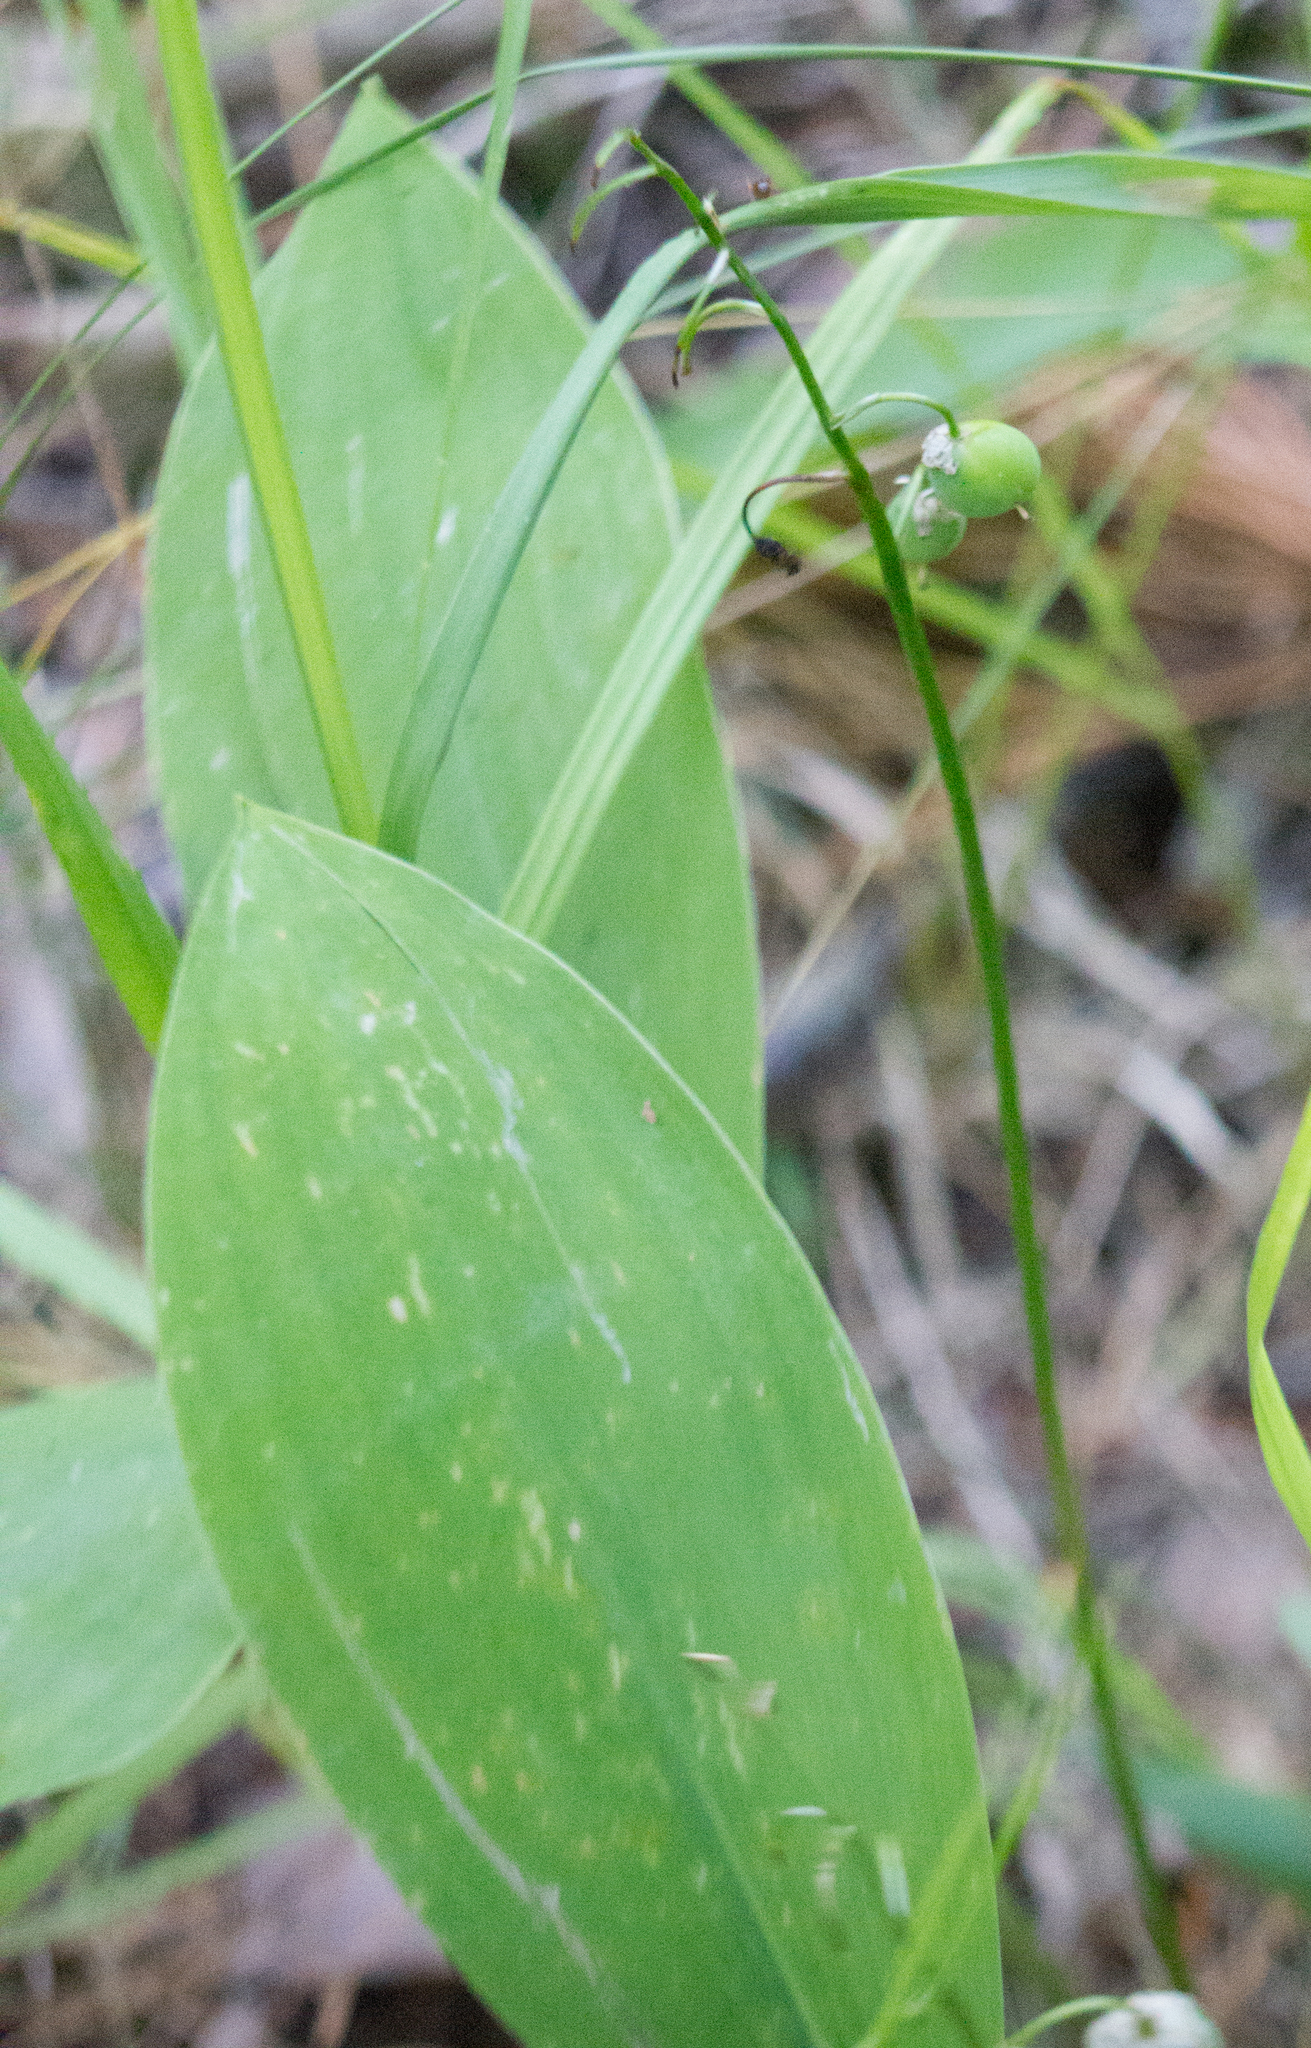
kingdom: Plantae
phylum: Tracheophyta
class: Liliopsida
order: Asparagales
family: Asparagaceae
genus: Convallaria
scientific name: Convallaria majalis
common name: Lily-of-the-valley
